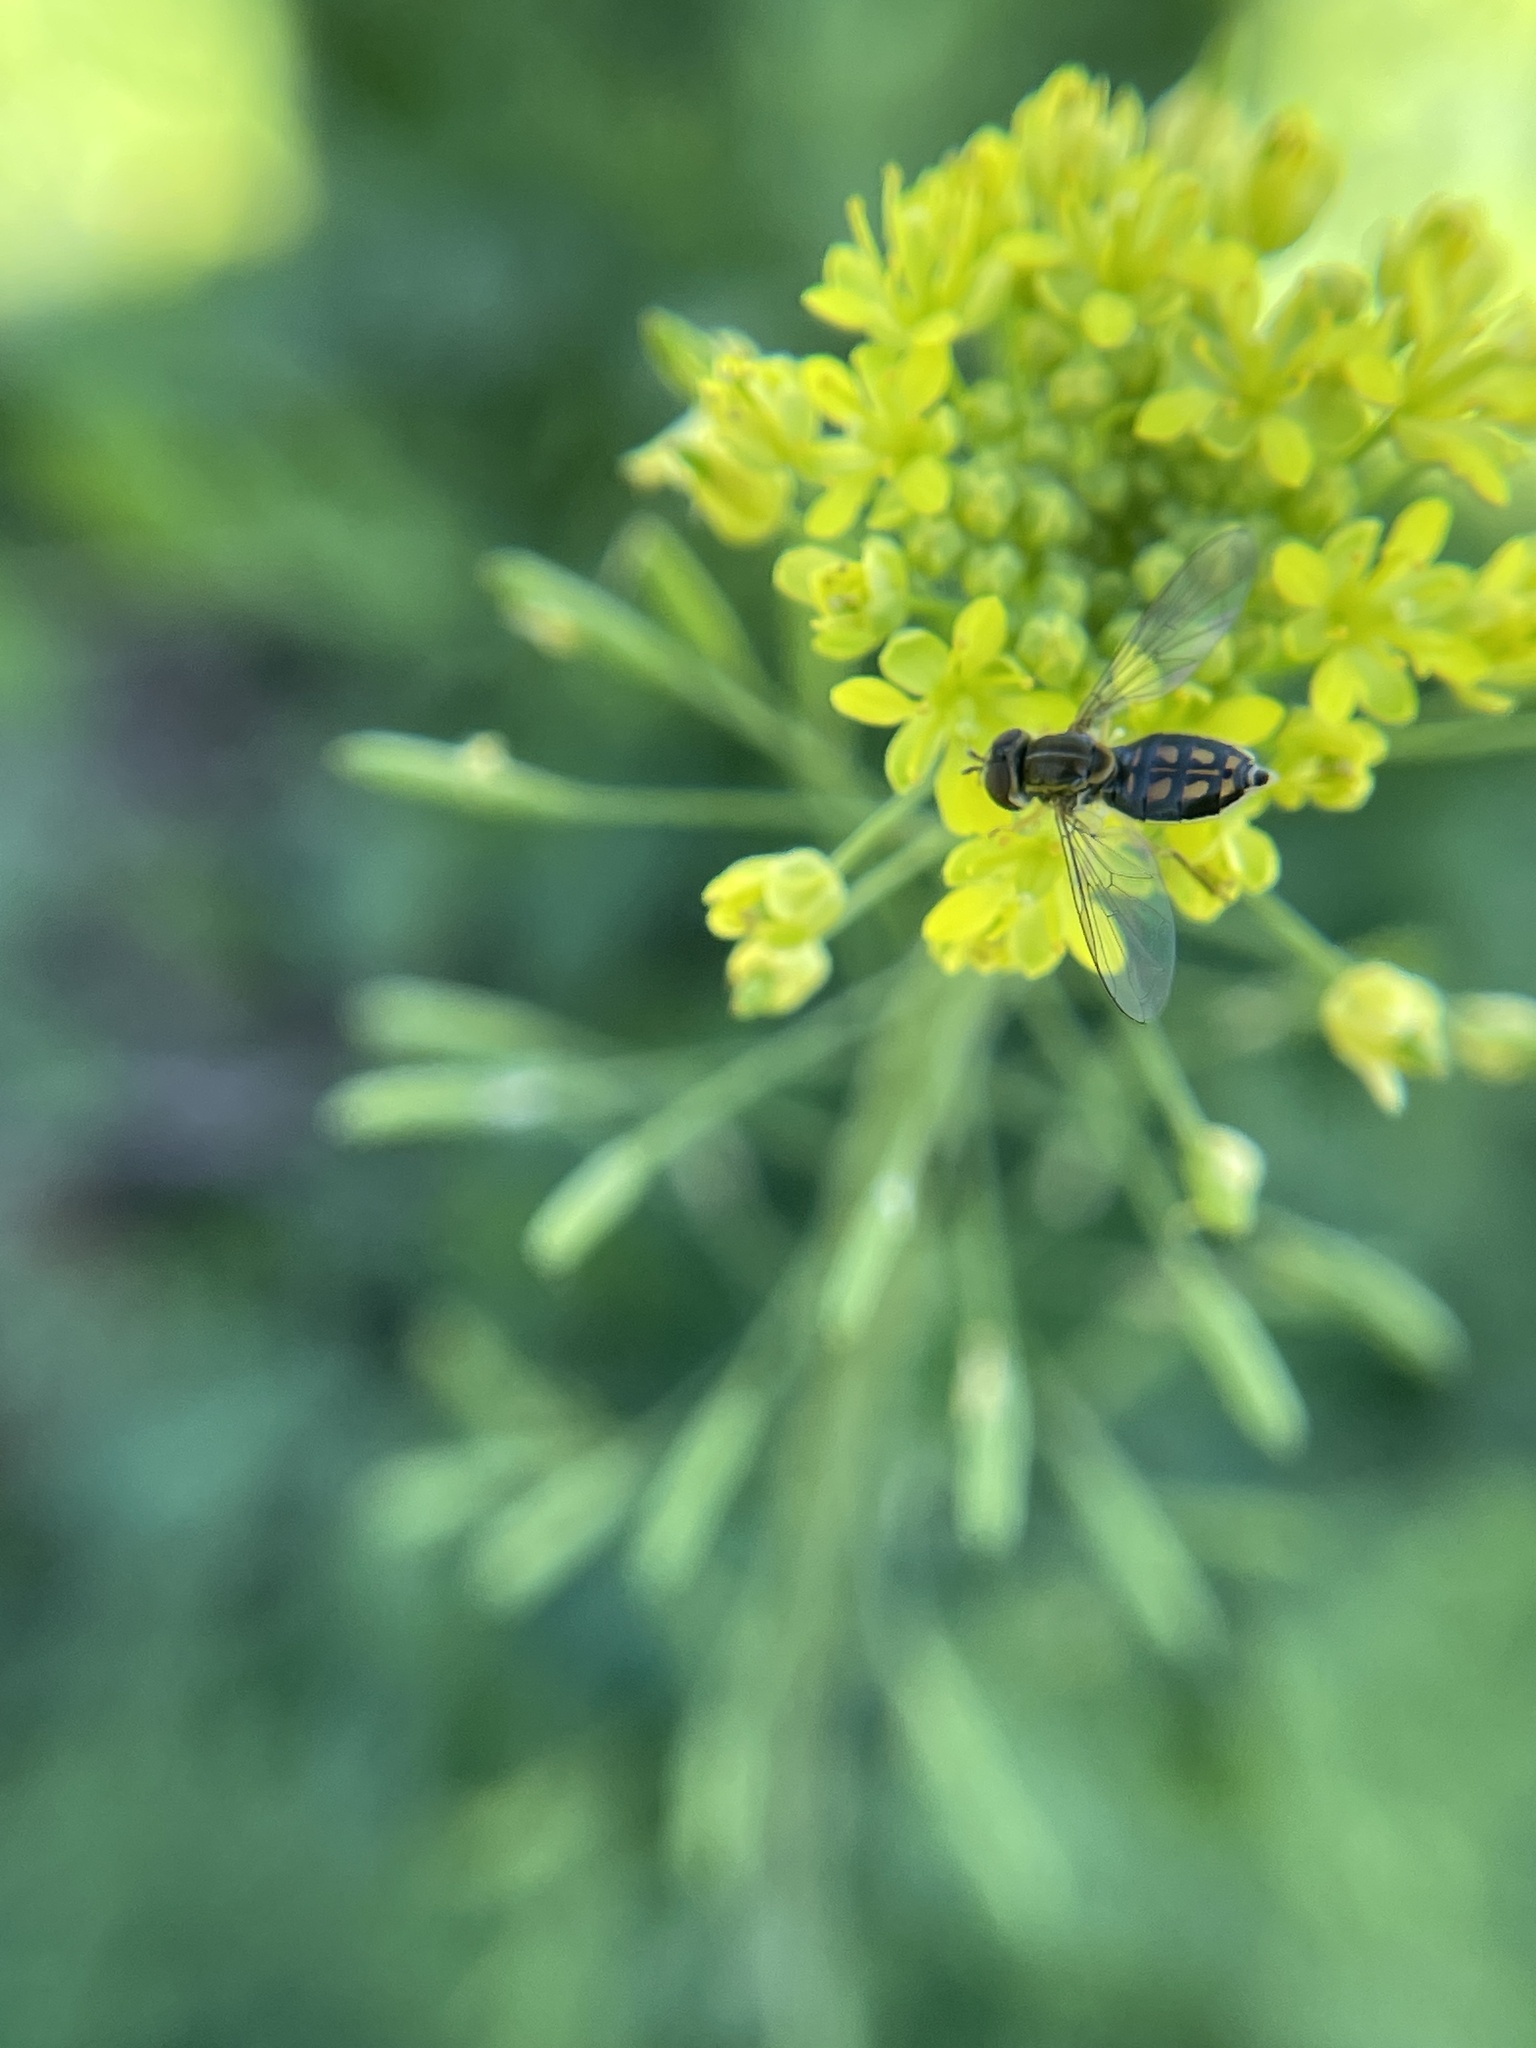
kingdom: Animalia
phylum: Arthropoda
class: Insecta
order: Diptera
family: Syrphidae
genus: Toxomerus
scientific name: Toxomerus marginatus
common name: Syrphid fly
